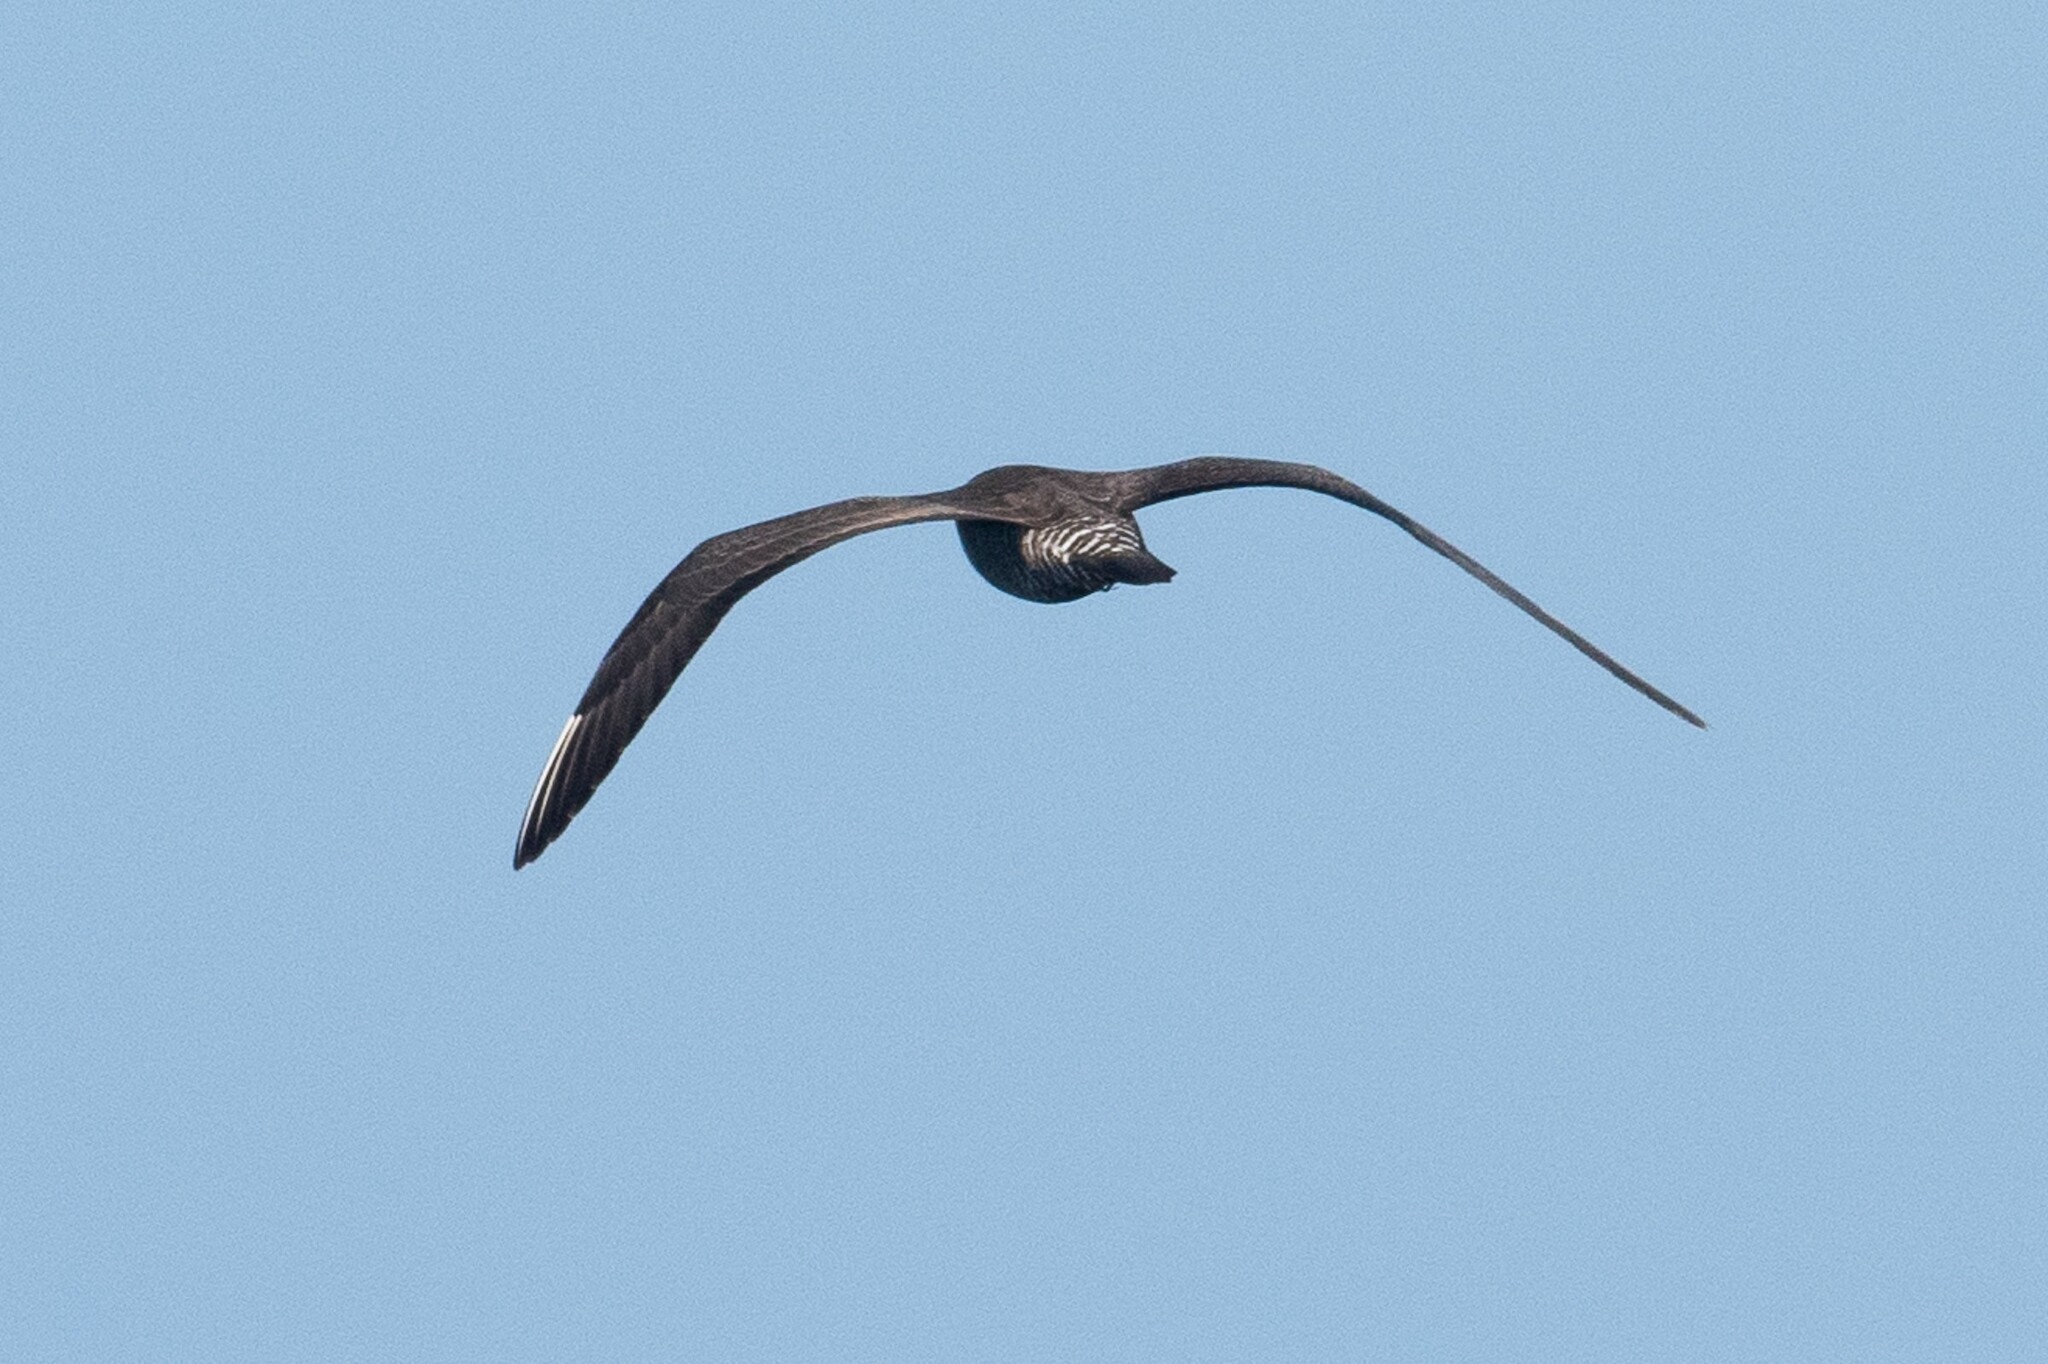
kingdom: Animalia
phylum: Chordata
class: Aves
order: Charadriiformes
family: Stercorariidae
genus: Stercorarius
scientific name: Stercorarius longicaudus
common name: Long-tailed jaeger
